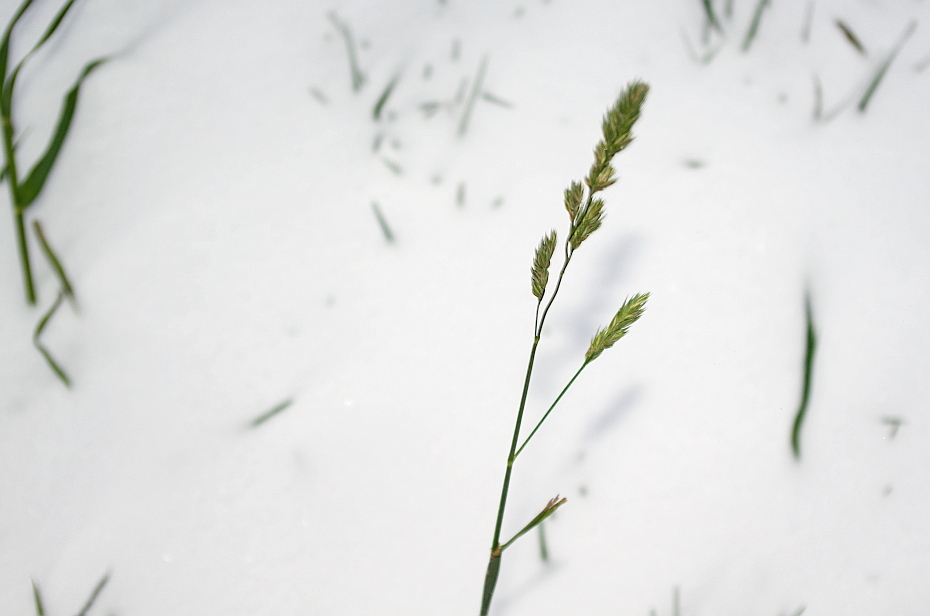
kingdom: Plantae
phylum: Tracheophyta
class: Liliopsida
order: Poales
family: Poaceae
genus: Dactylis
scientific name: Dactylis glomerata
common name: Orchardgrass
